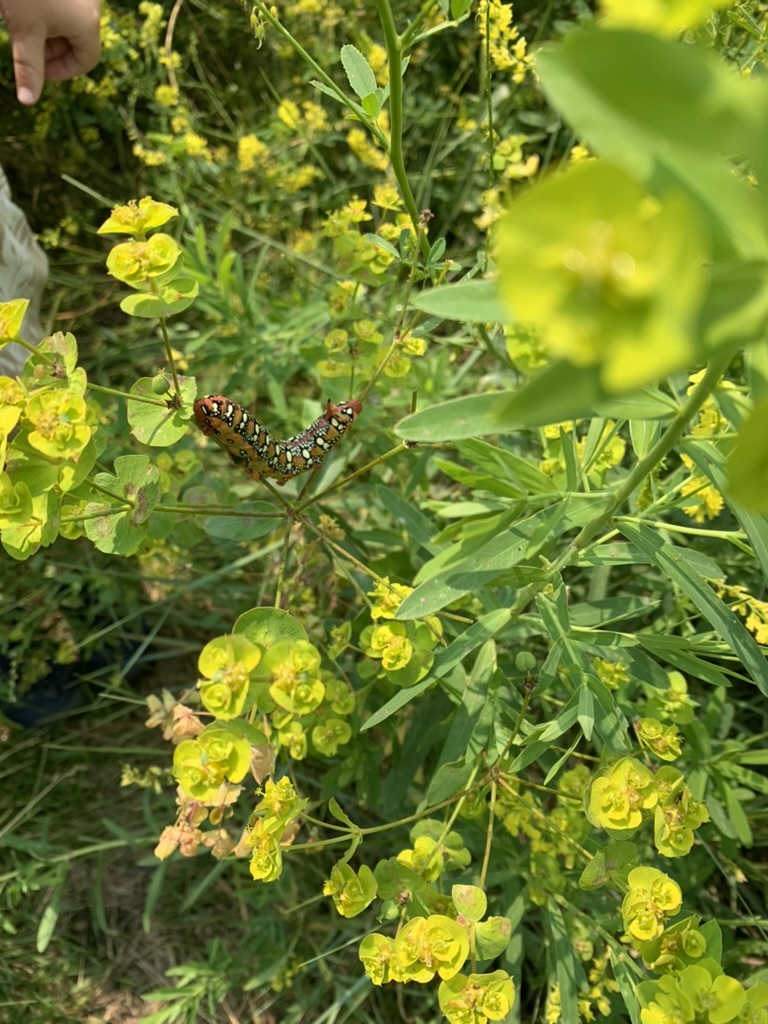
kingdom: Animalia
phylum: Arthropoda
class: Insecta
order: Lepidoptera
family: Sphingidae
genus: Hyles
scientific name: Hyles euphorbiae
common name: Spurge hawk-moth
